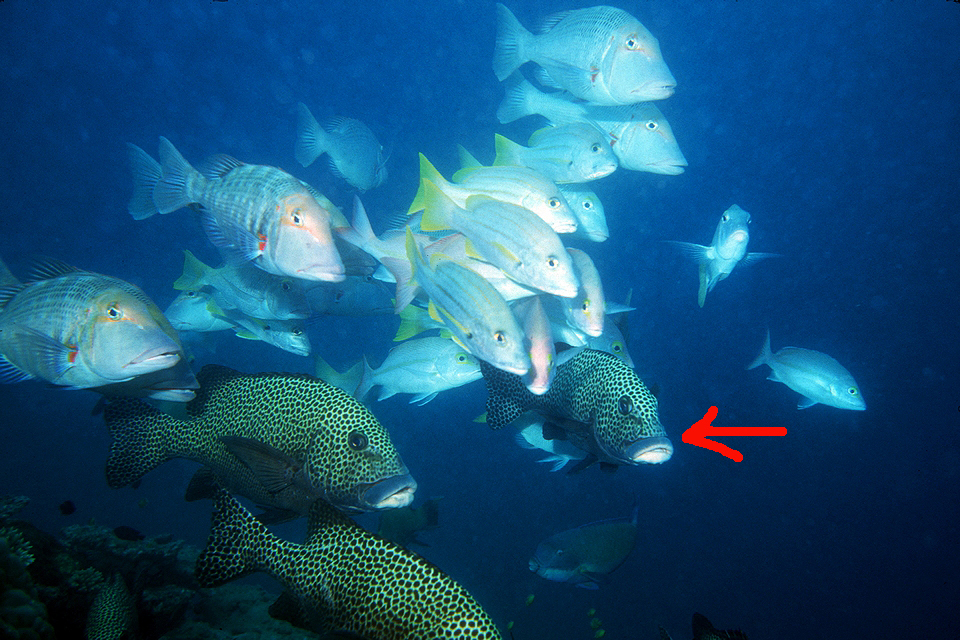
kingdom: Animalia
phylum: Chordata
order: Perciformes
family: Haemulidae
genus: Plectorhinchus
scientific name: Plectorhinchus chaetodonoides
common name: Harlequin sweetlips
